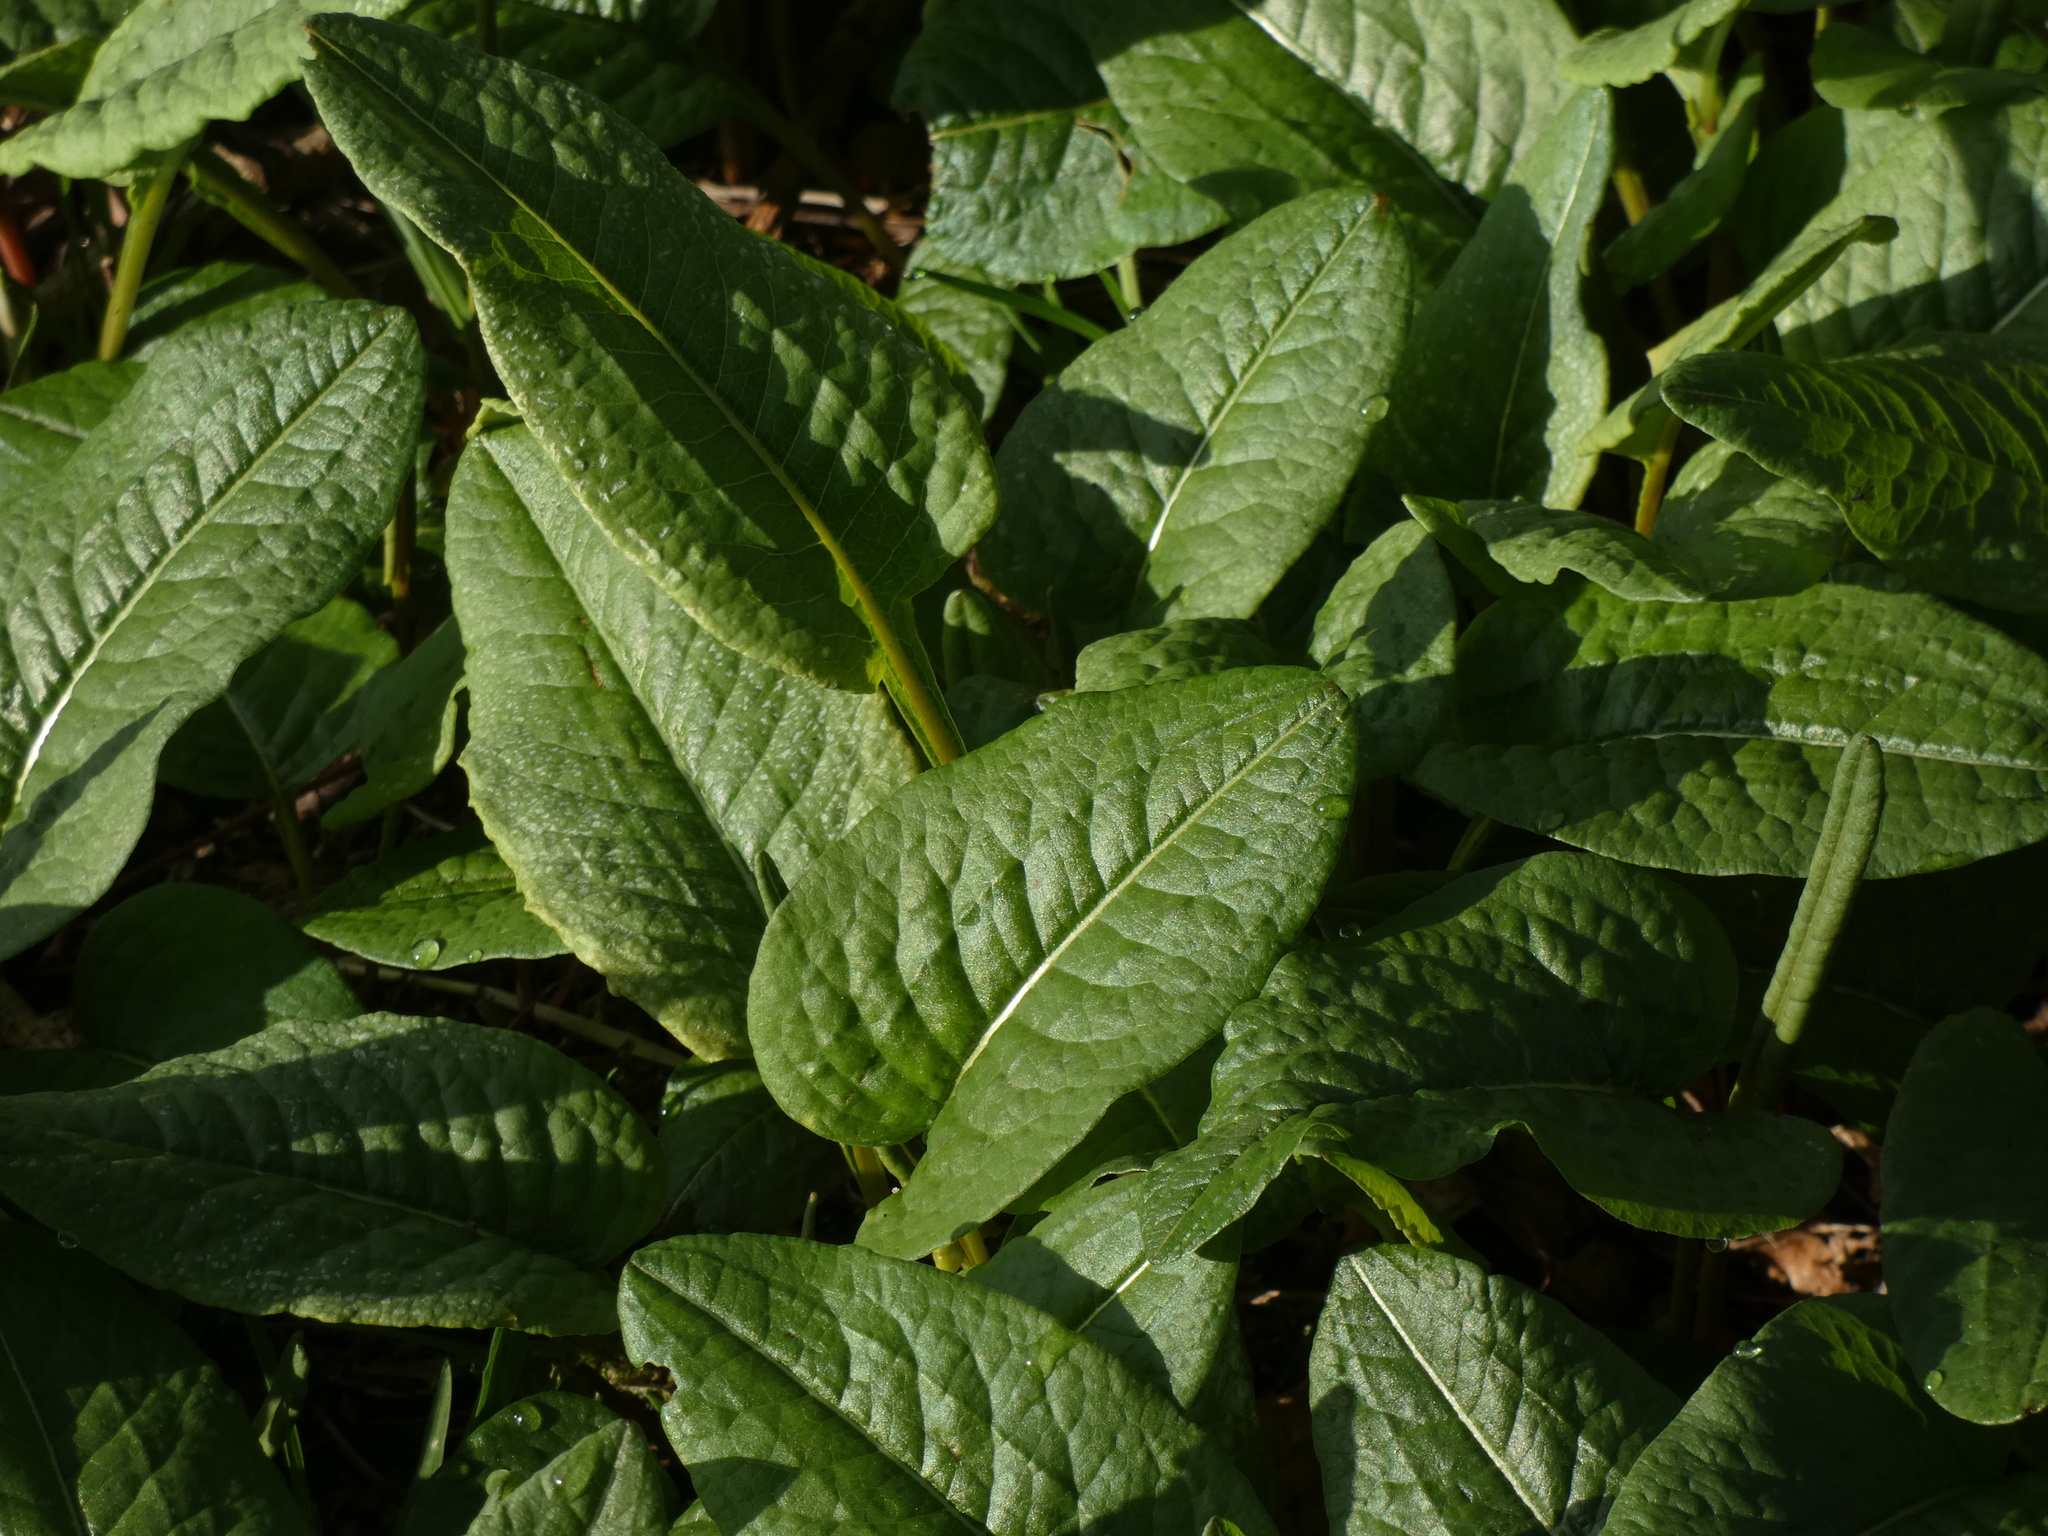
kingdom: Plantae
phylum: Tracheophyta
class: Magnoliopsida
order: Caryophyllales
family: Polygonaceae
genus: Bistorta
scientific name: Bistorta officinalis
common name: Common bistort
